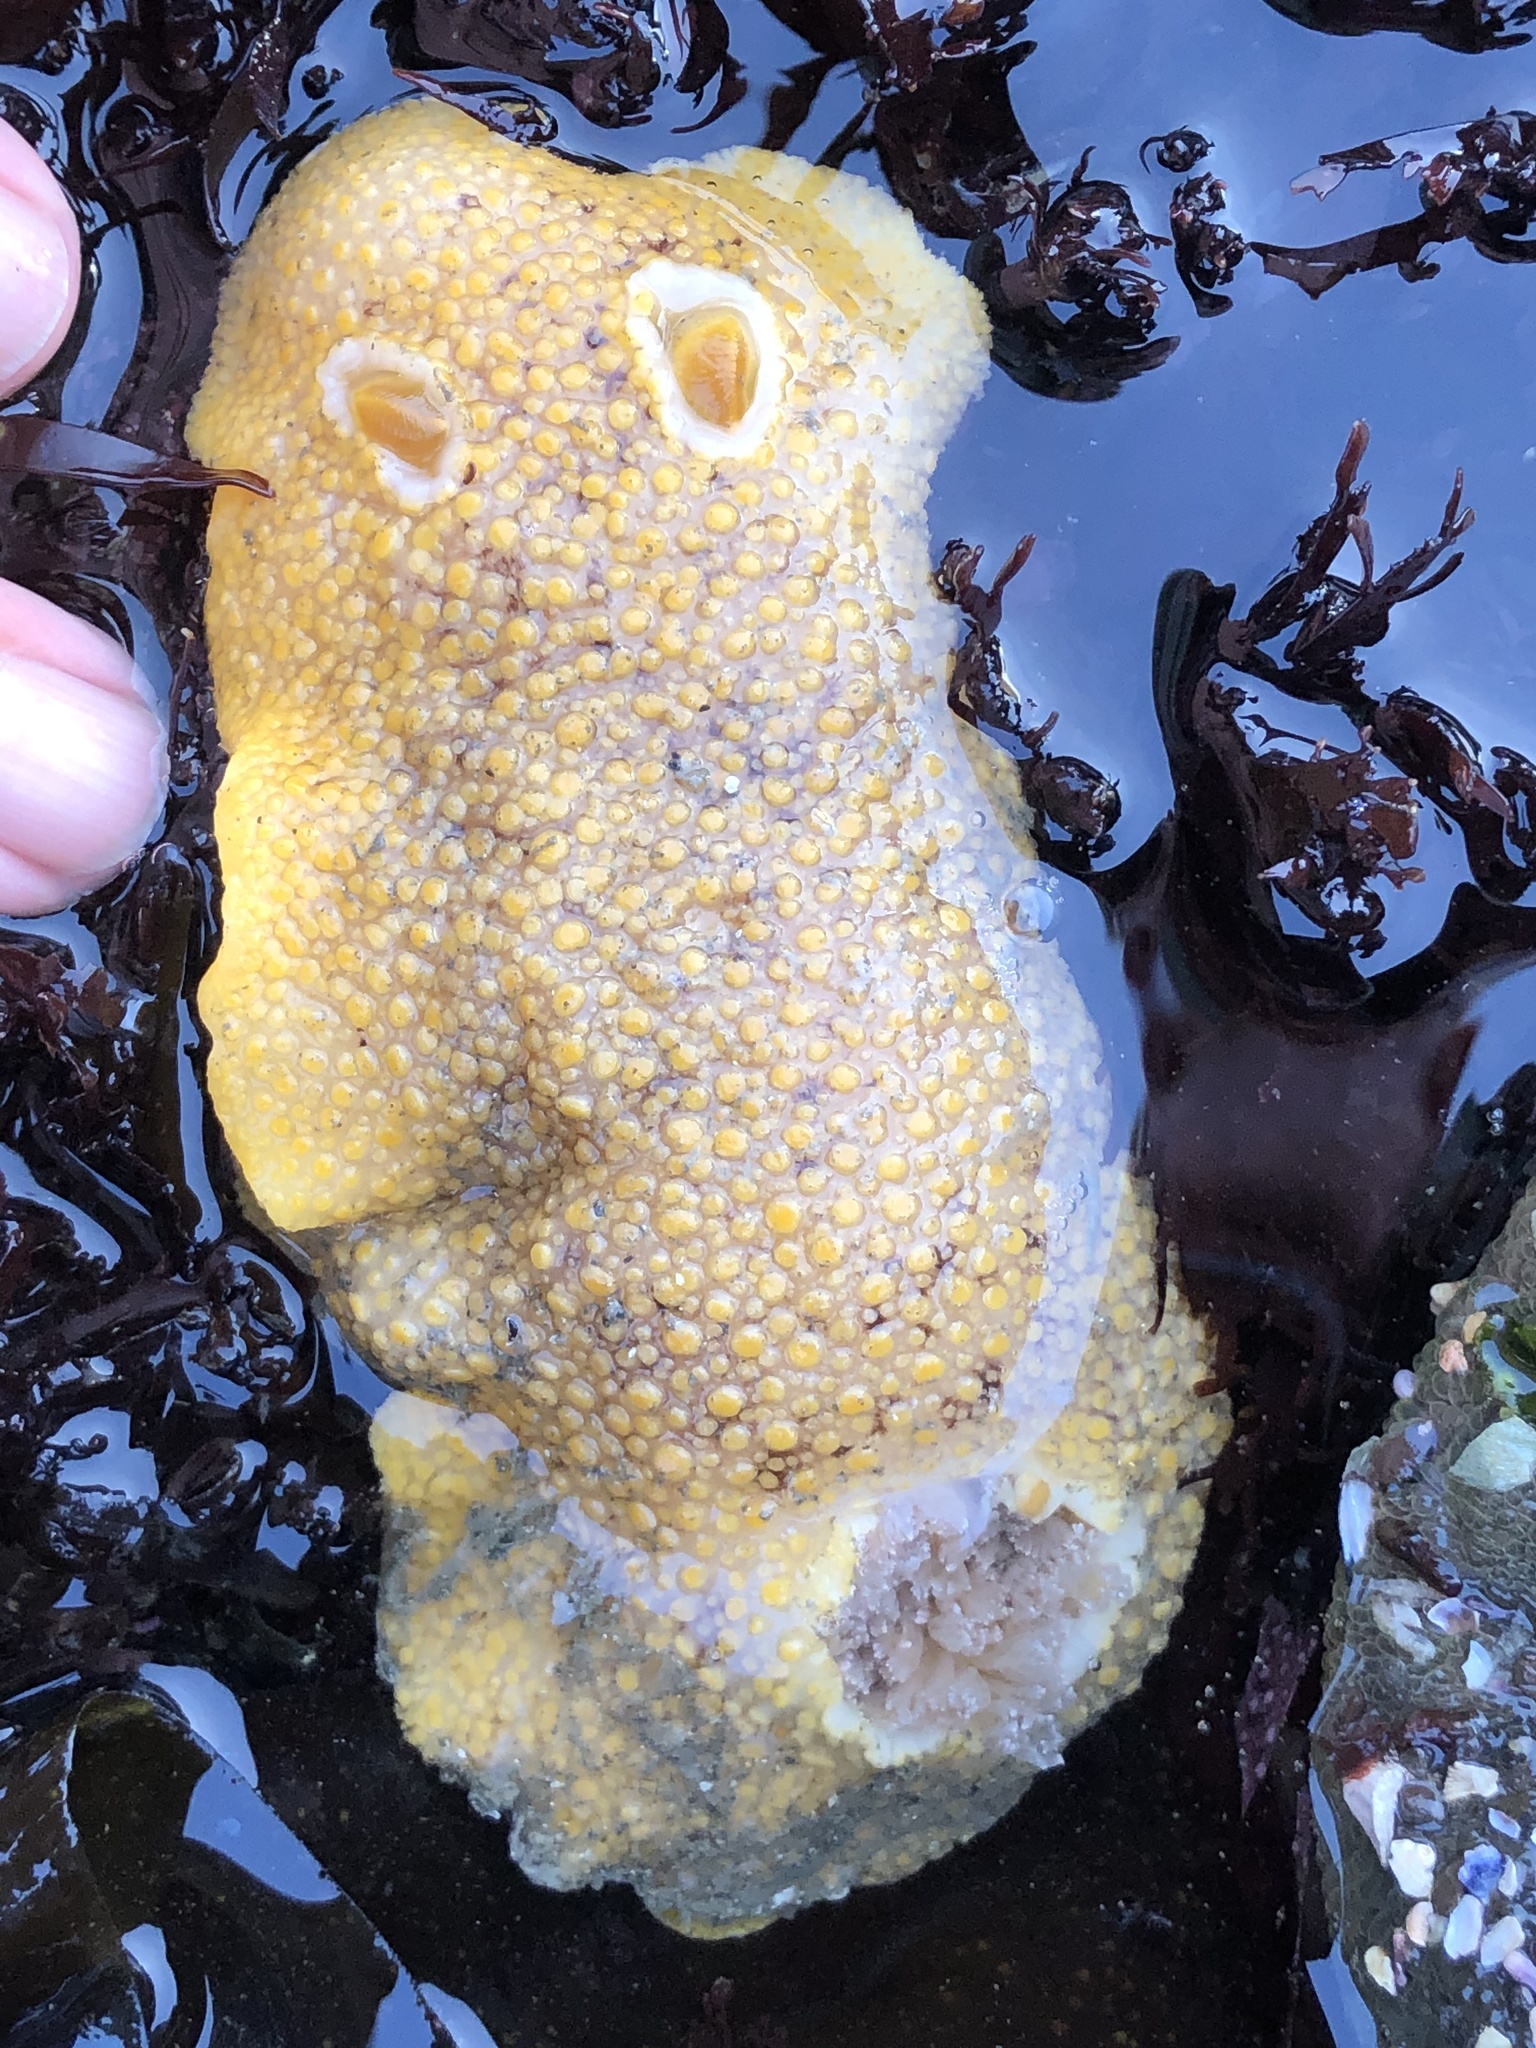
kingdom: Animalia
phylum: Mollusca
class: Gastropoda
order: Nudibranchia
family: Discodorididae
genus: Peltodoris
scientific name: Peltodoris nobilis
